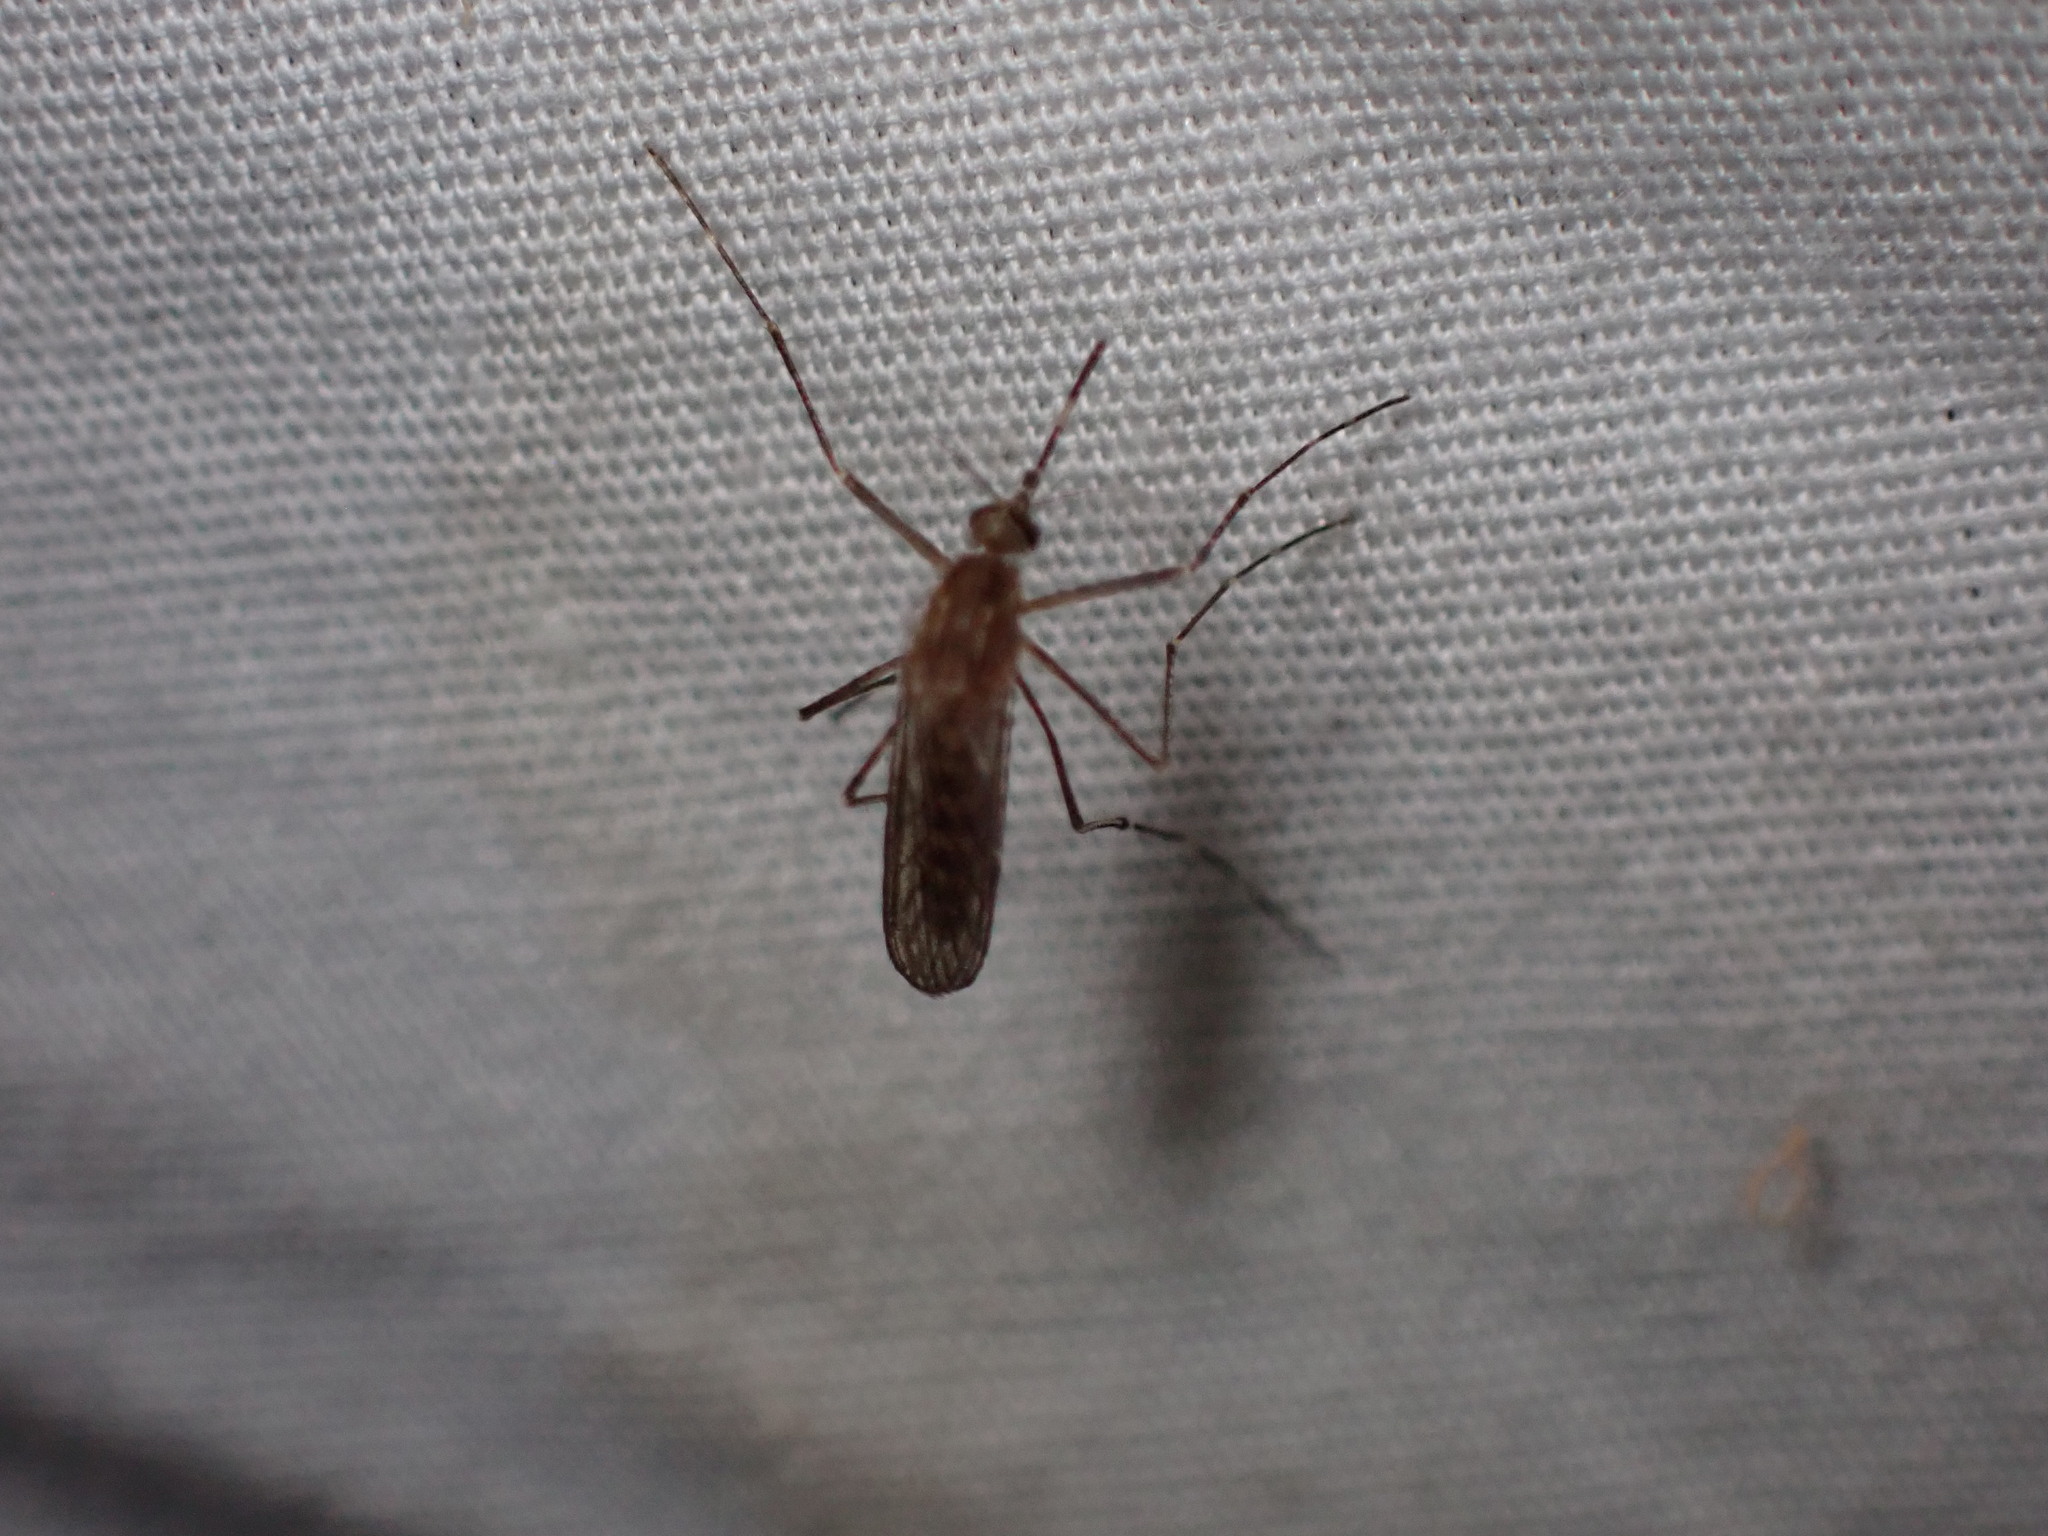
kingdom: Animalia
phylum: Arthropoda
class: Insecta
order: Diptera
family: Culicidae
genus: Culex
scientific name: Culex tarsalis
